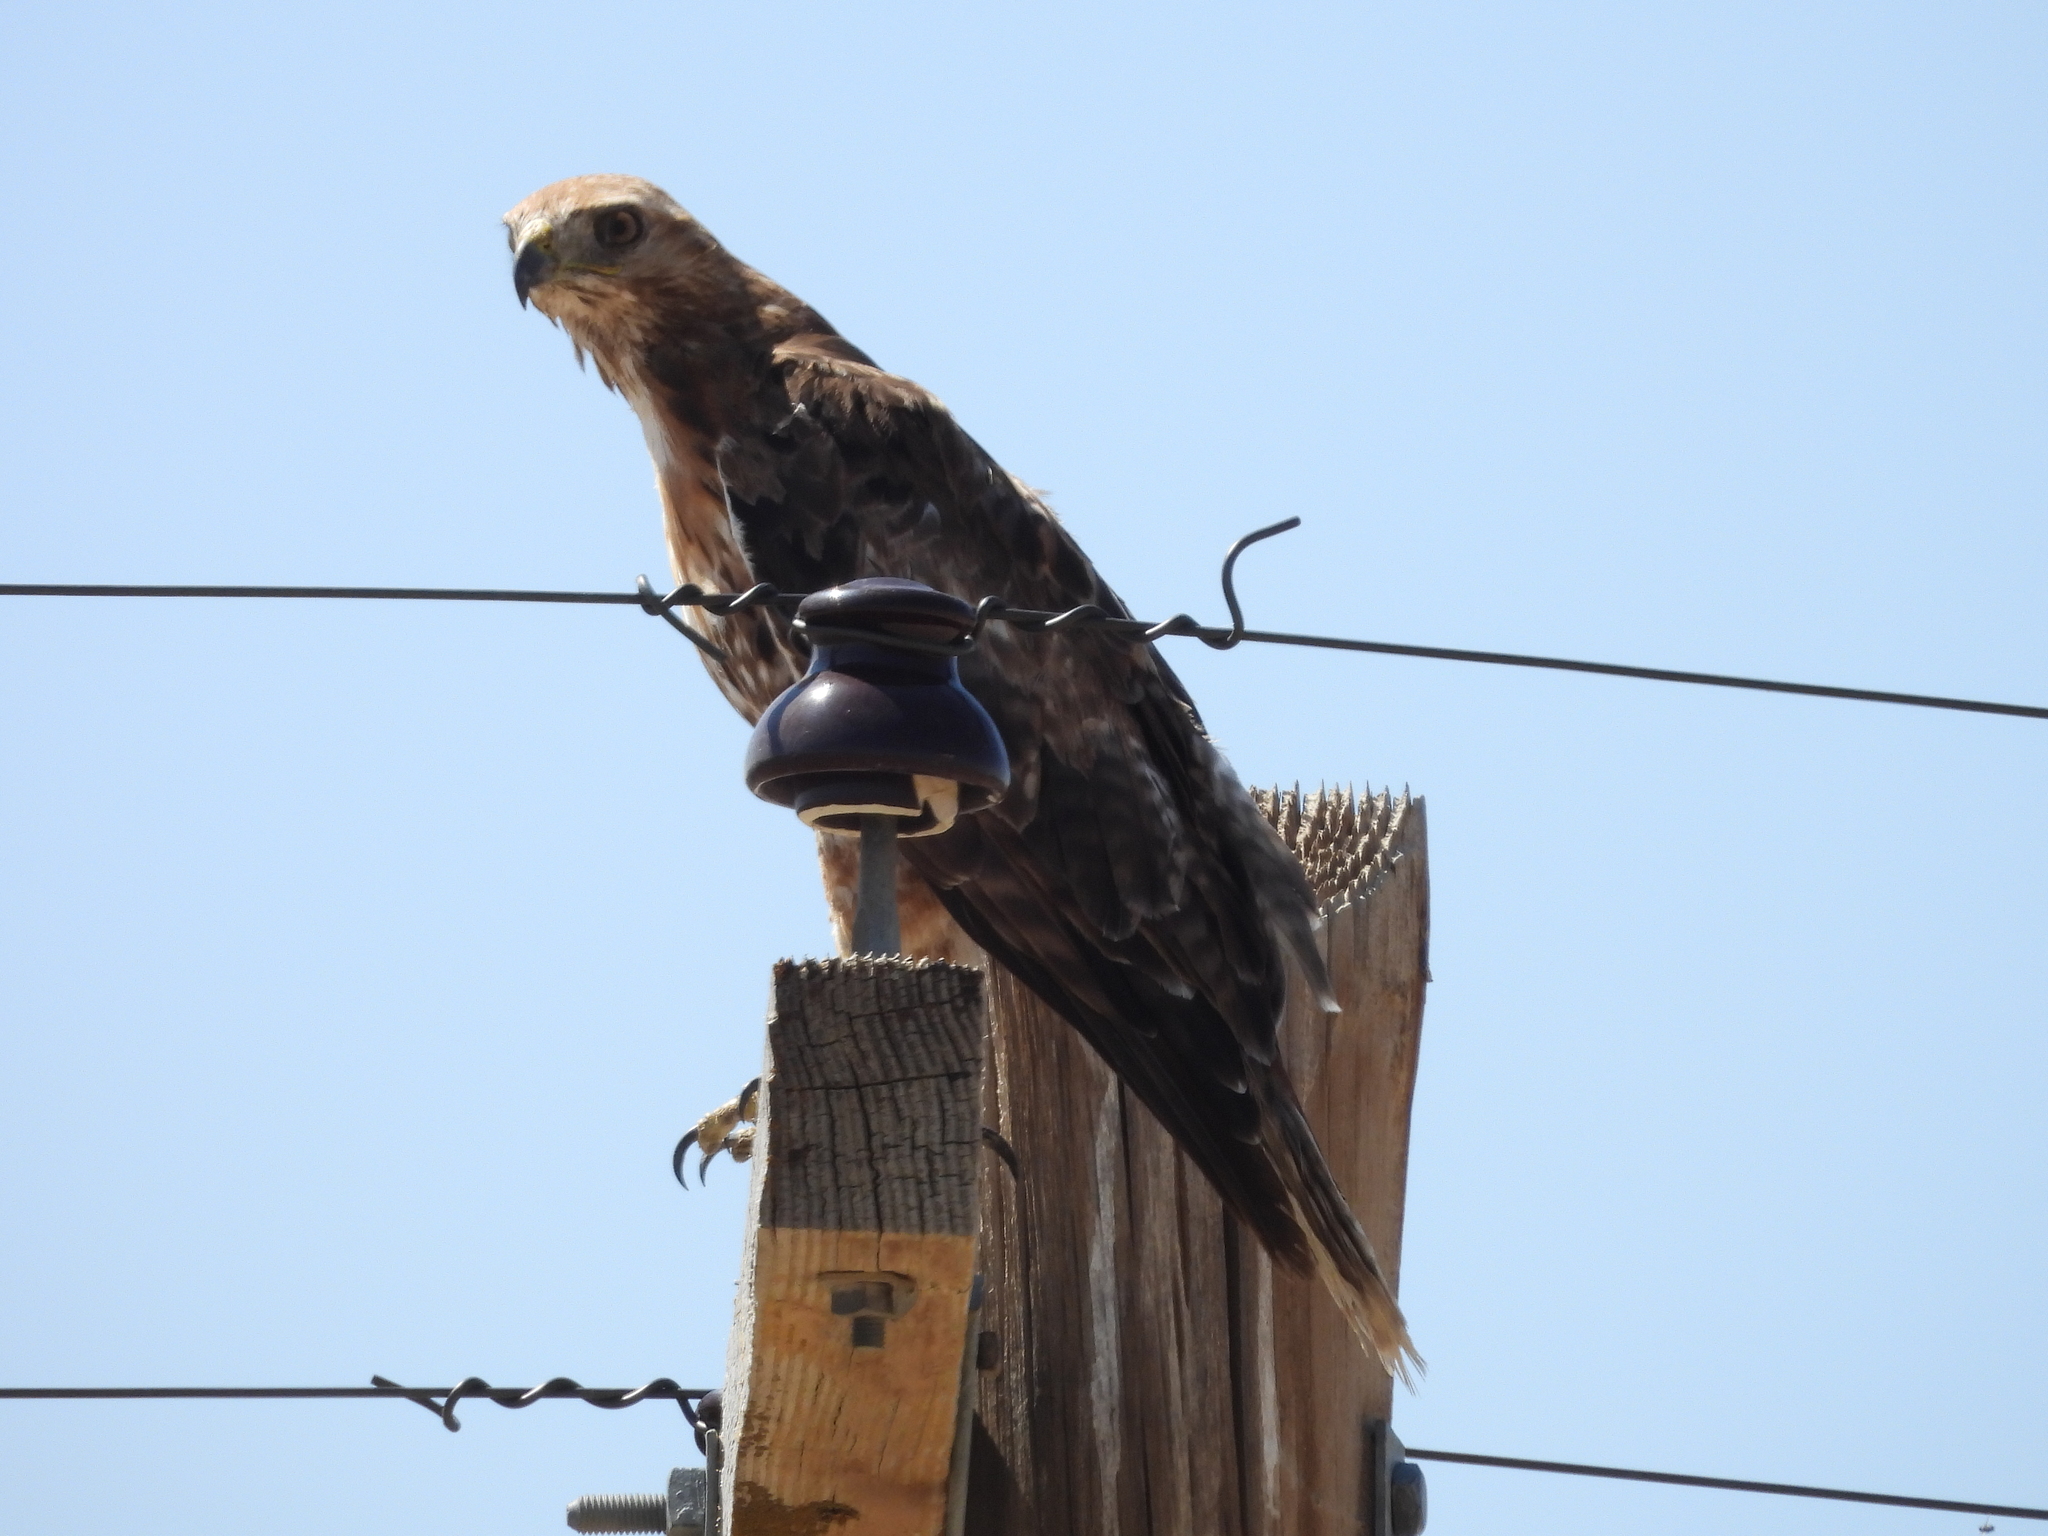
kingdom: Animalia
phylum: Chordata
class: Aves
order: Accipitriformes
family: Accipitridae
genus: Buteo
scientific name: Buteo jamaicensis
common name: Red-tailed hawk
